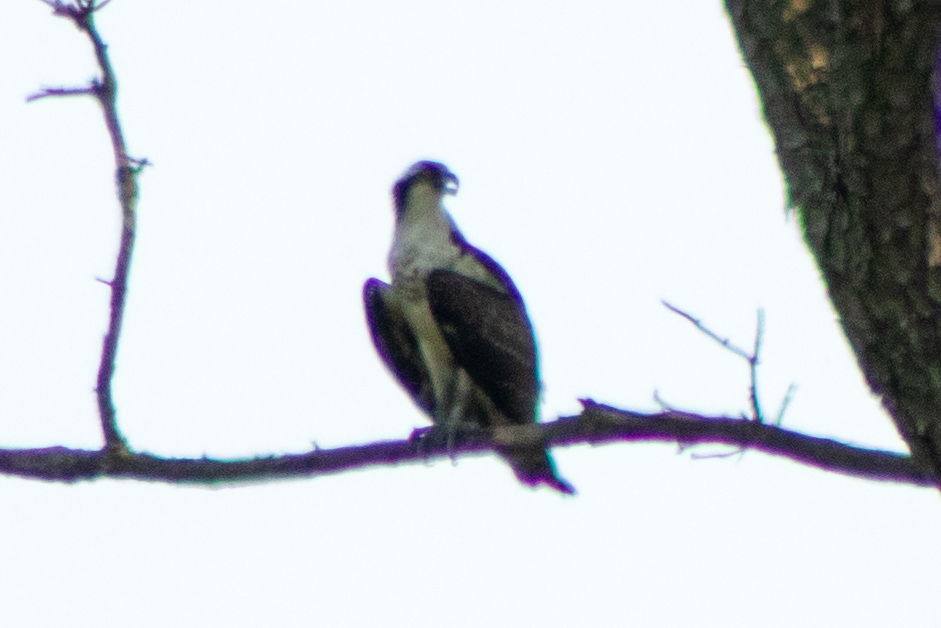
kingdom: Animalia
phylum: Chordata
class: Aves
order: Accipitriformes
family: Pandionidae
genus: Pandion
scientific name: Pandion haliaetus
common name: Osprey
